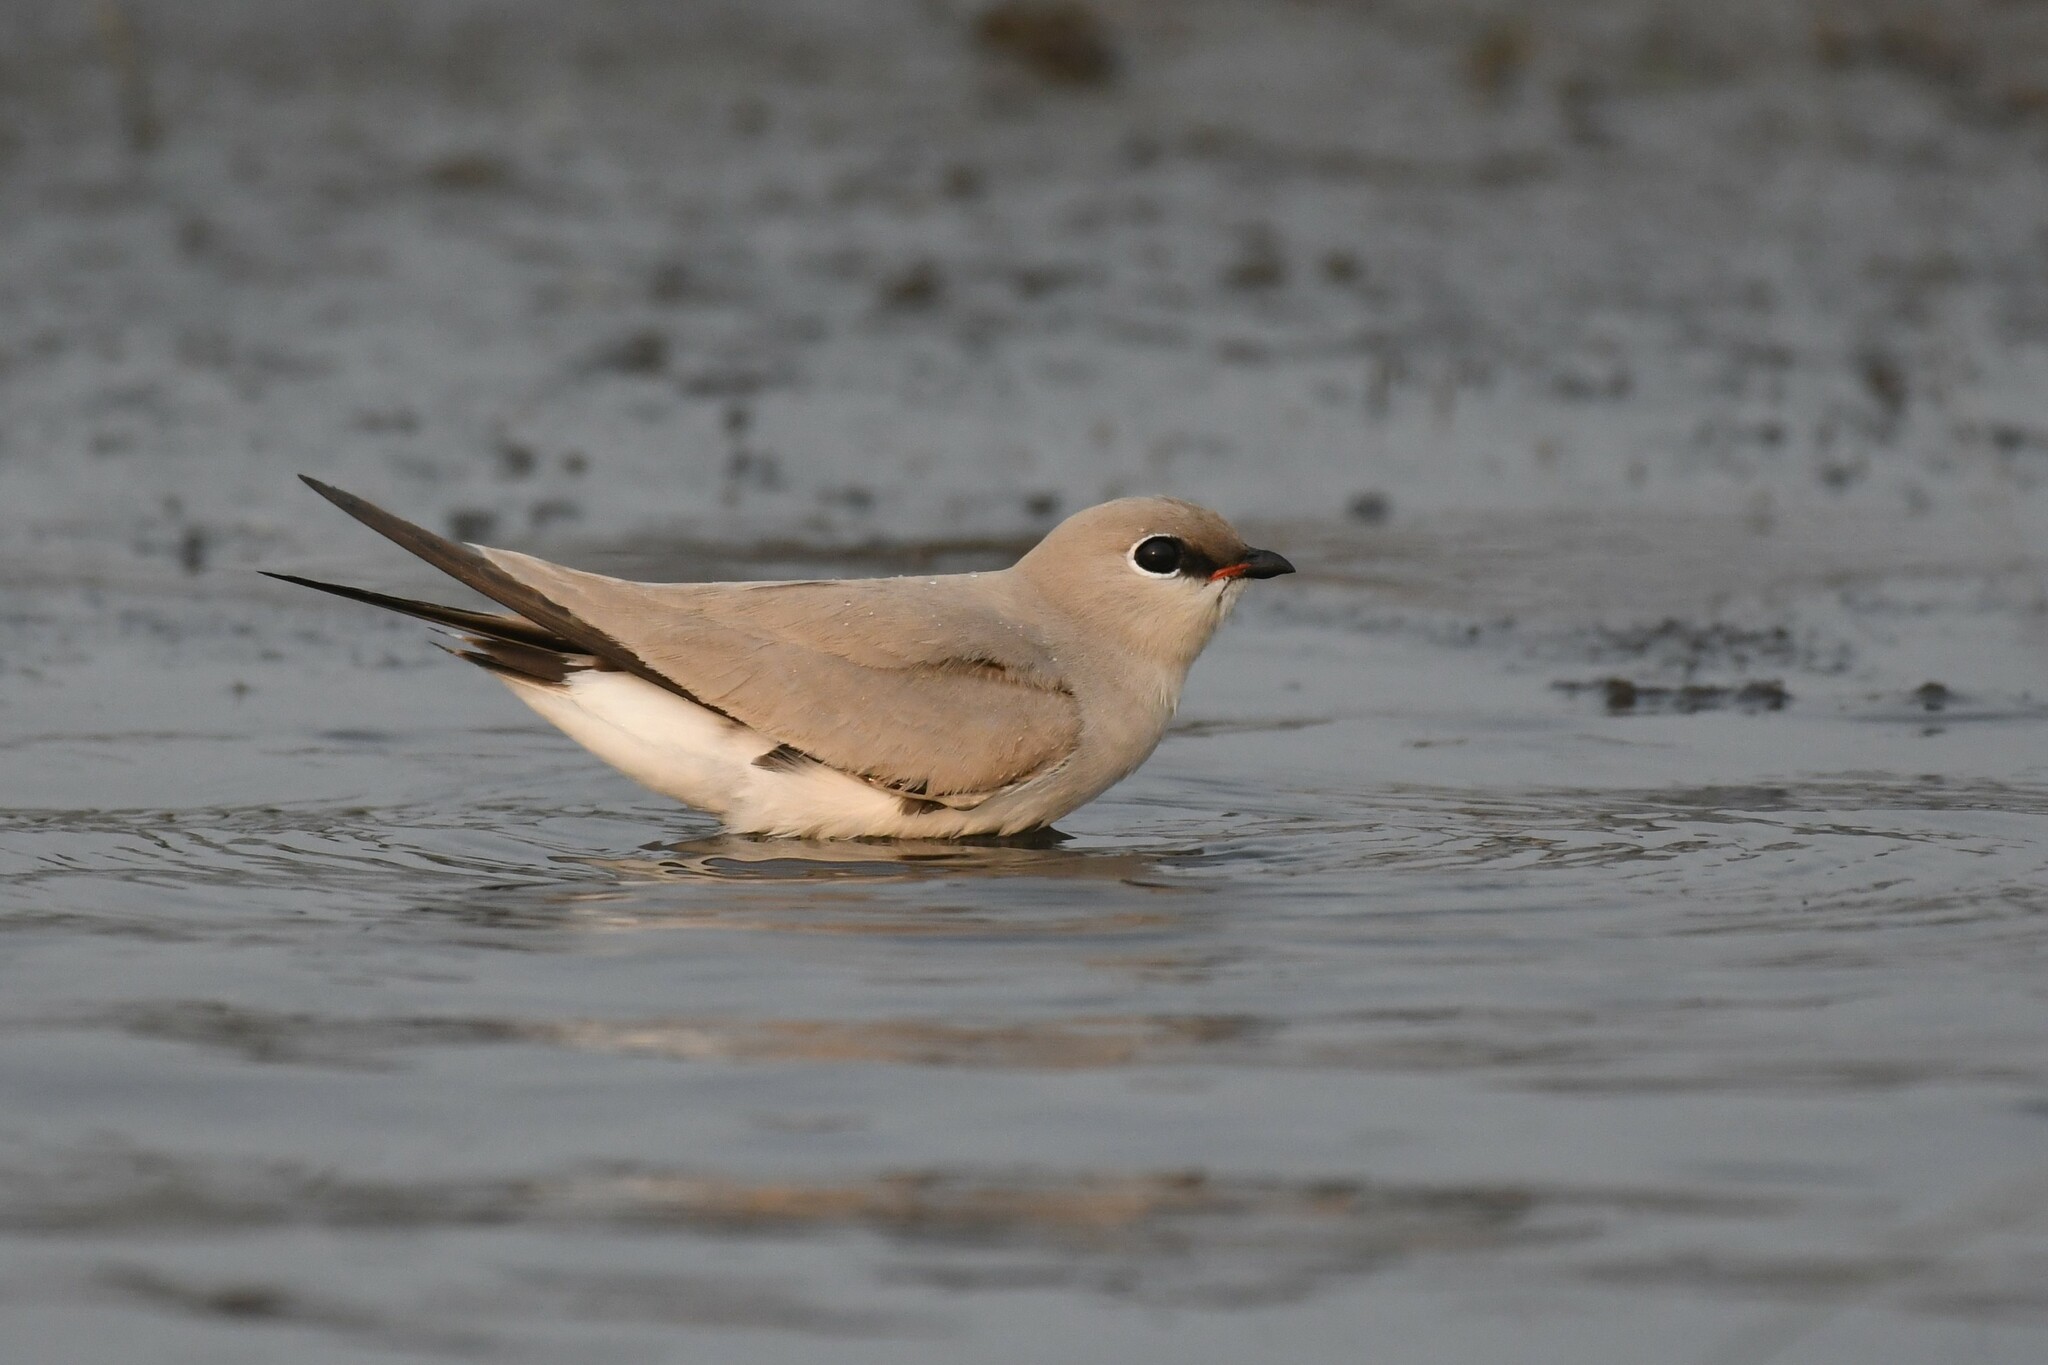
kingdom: Animalia
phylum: Chordata
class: Aves
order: Charadriiformes
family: Glareolidae
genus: Glareola
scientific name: Glareola lactea
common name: Small pratincole
